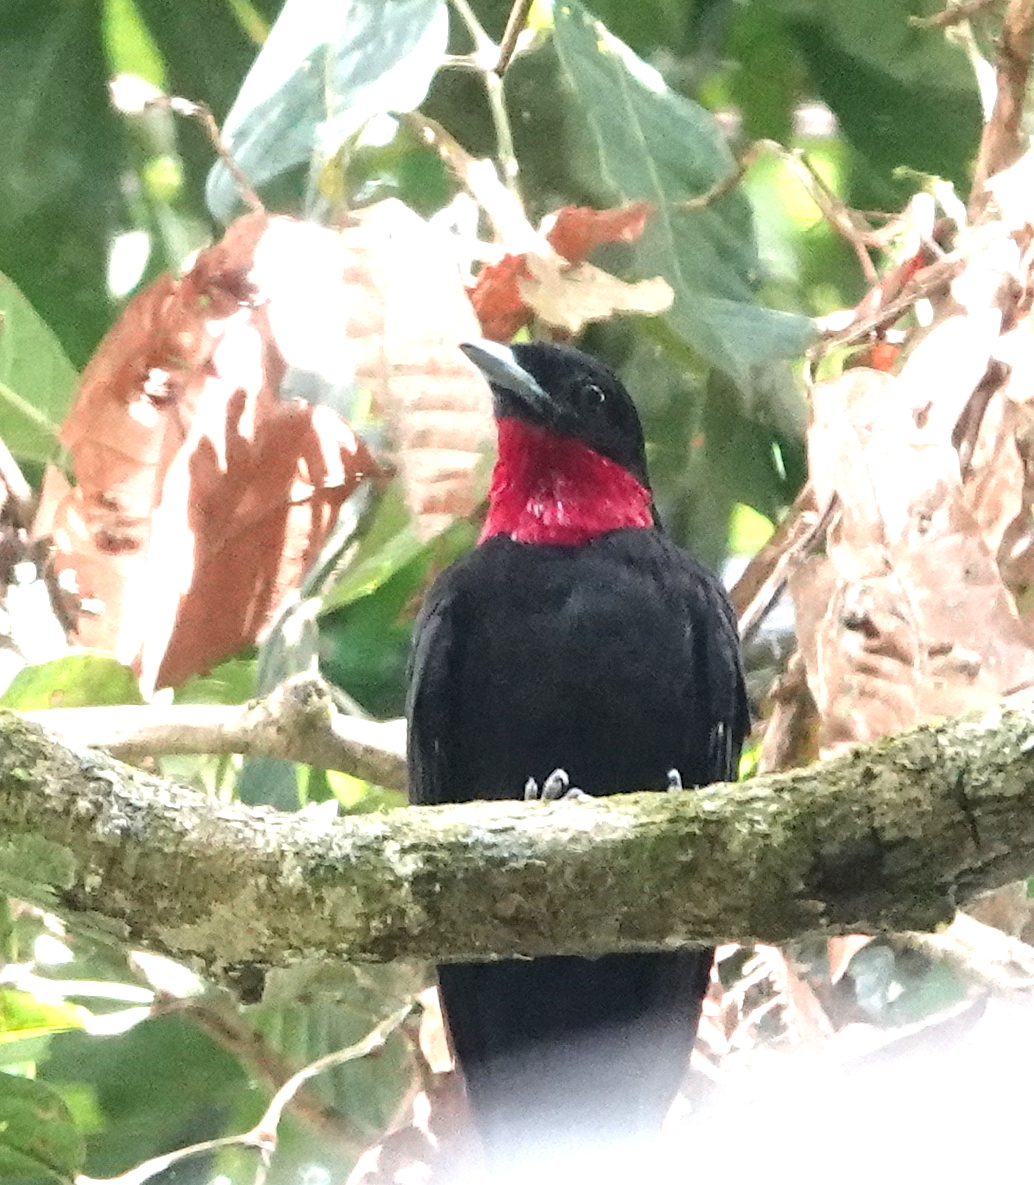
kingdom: Animalia
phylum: Chordata
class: Aves
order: Passeriformes
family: Cotingidae
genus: Querula
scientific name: Querula purpurata
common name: Purple-throated fruitcrow
